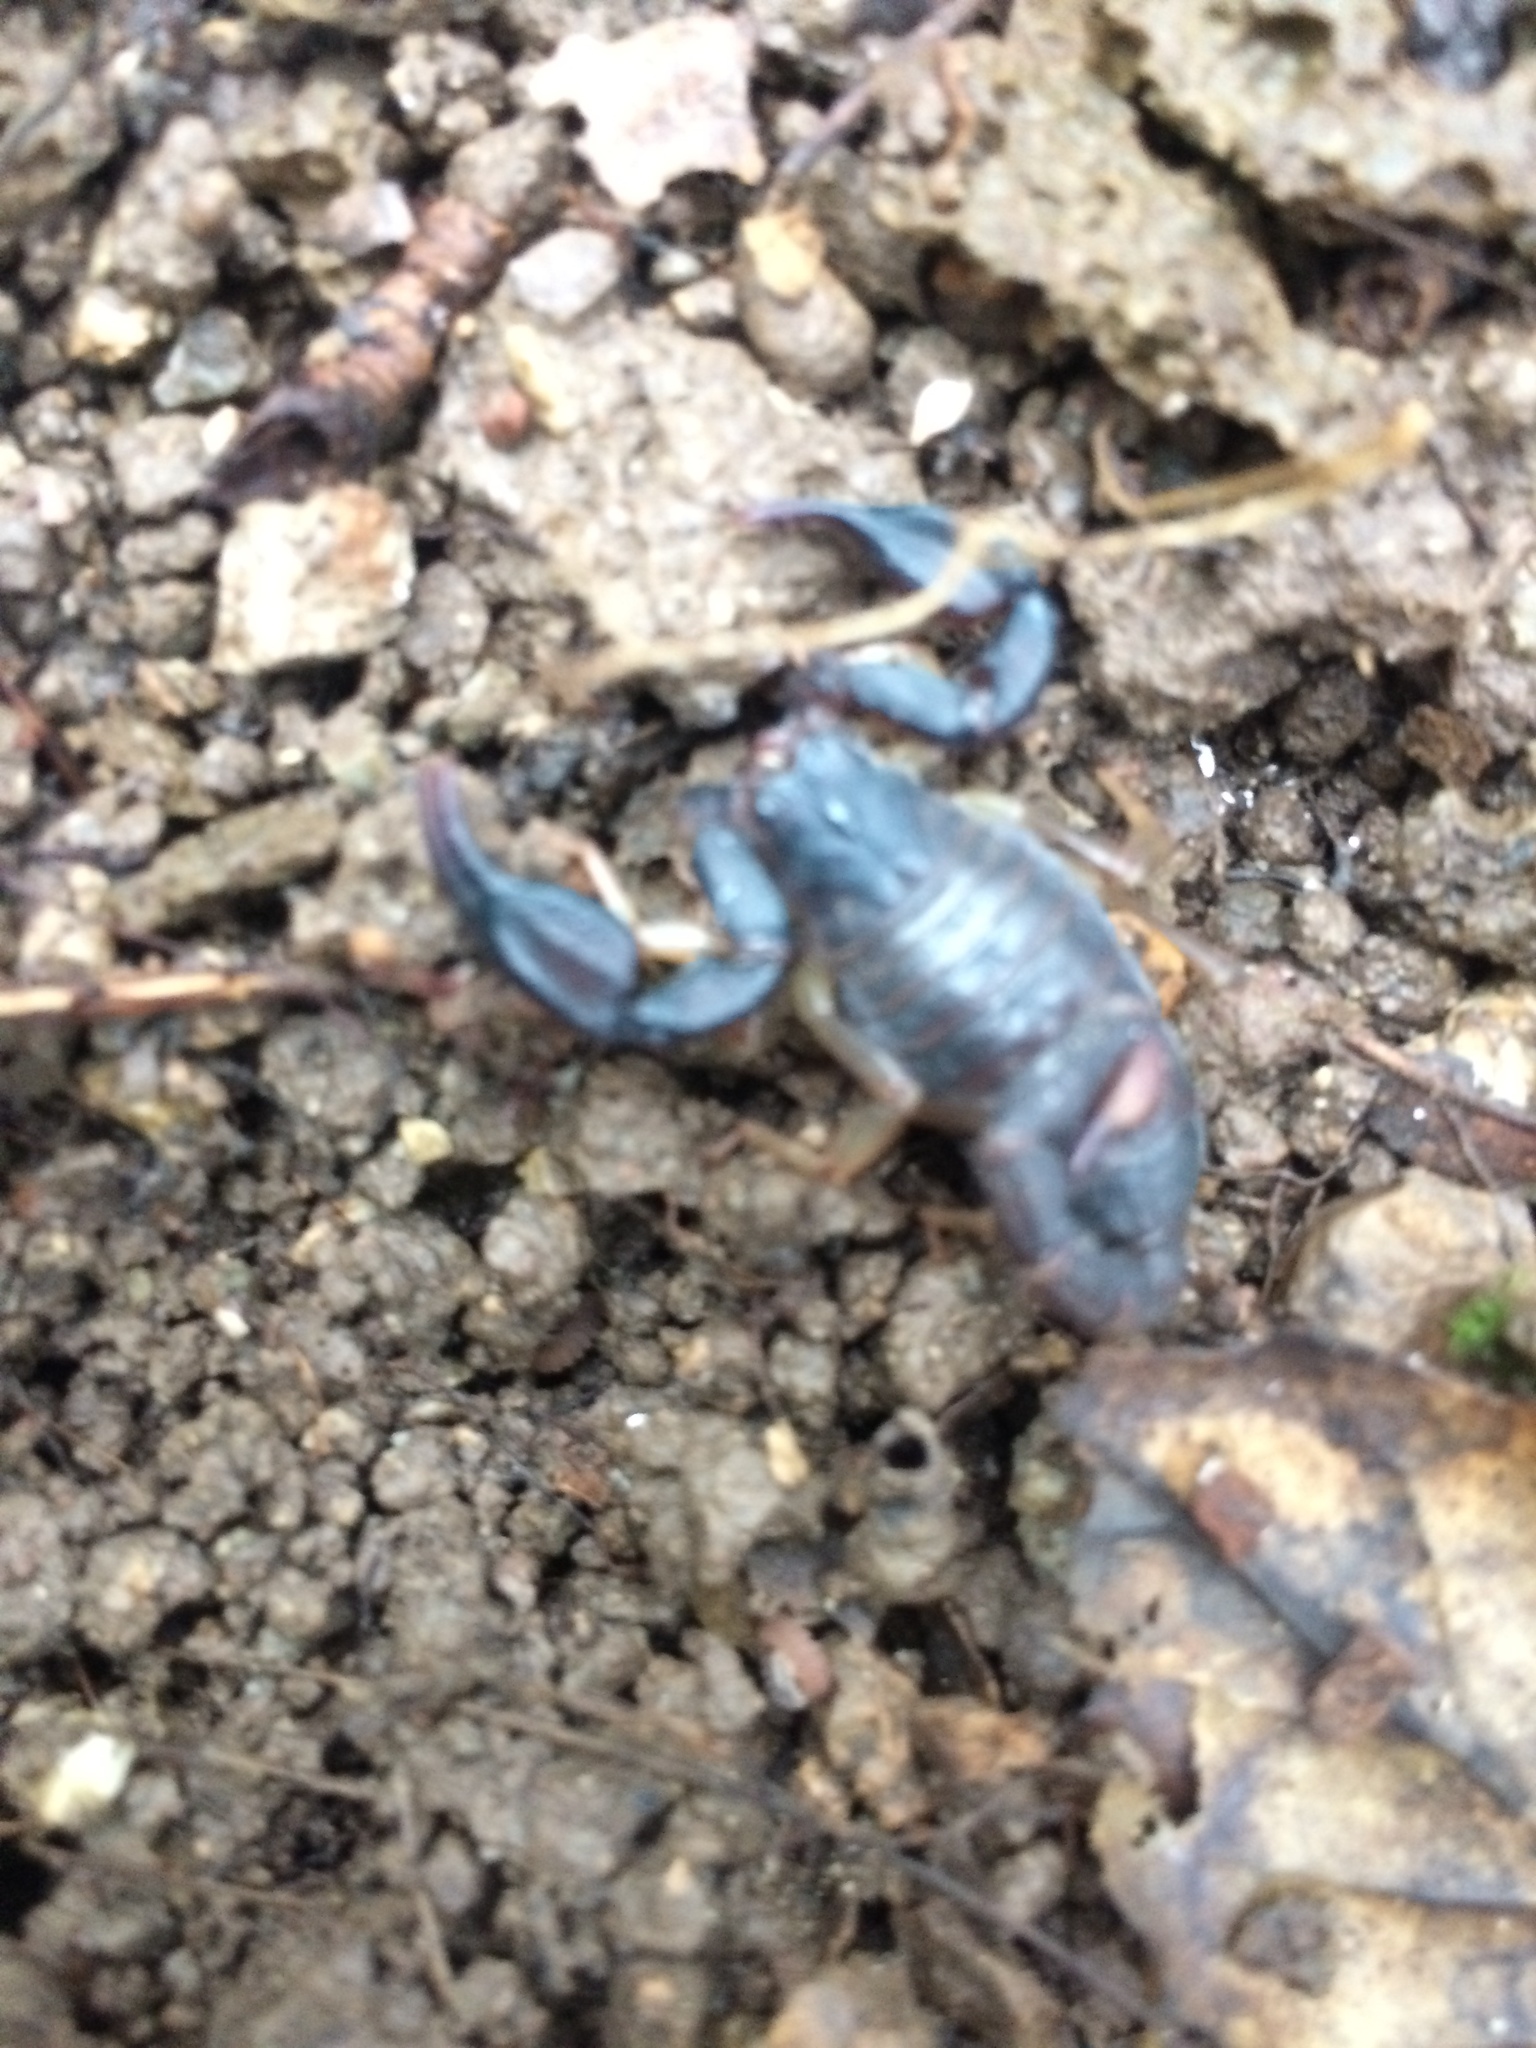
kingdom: Animalia
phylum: Arthropoda
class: Arachnida
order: Scorpiones
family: Chactidae
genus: Uroctonus
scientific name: Uroctonus mordax
